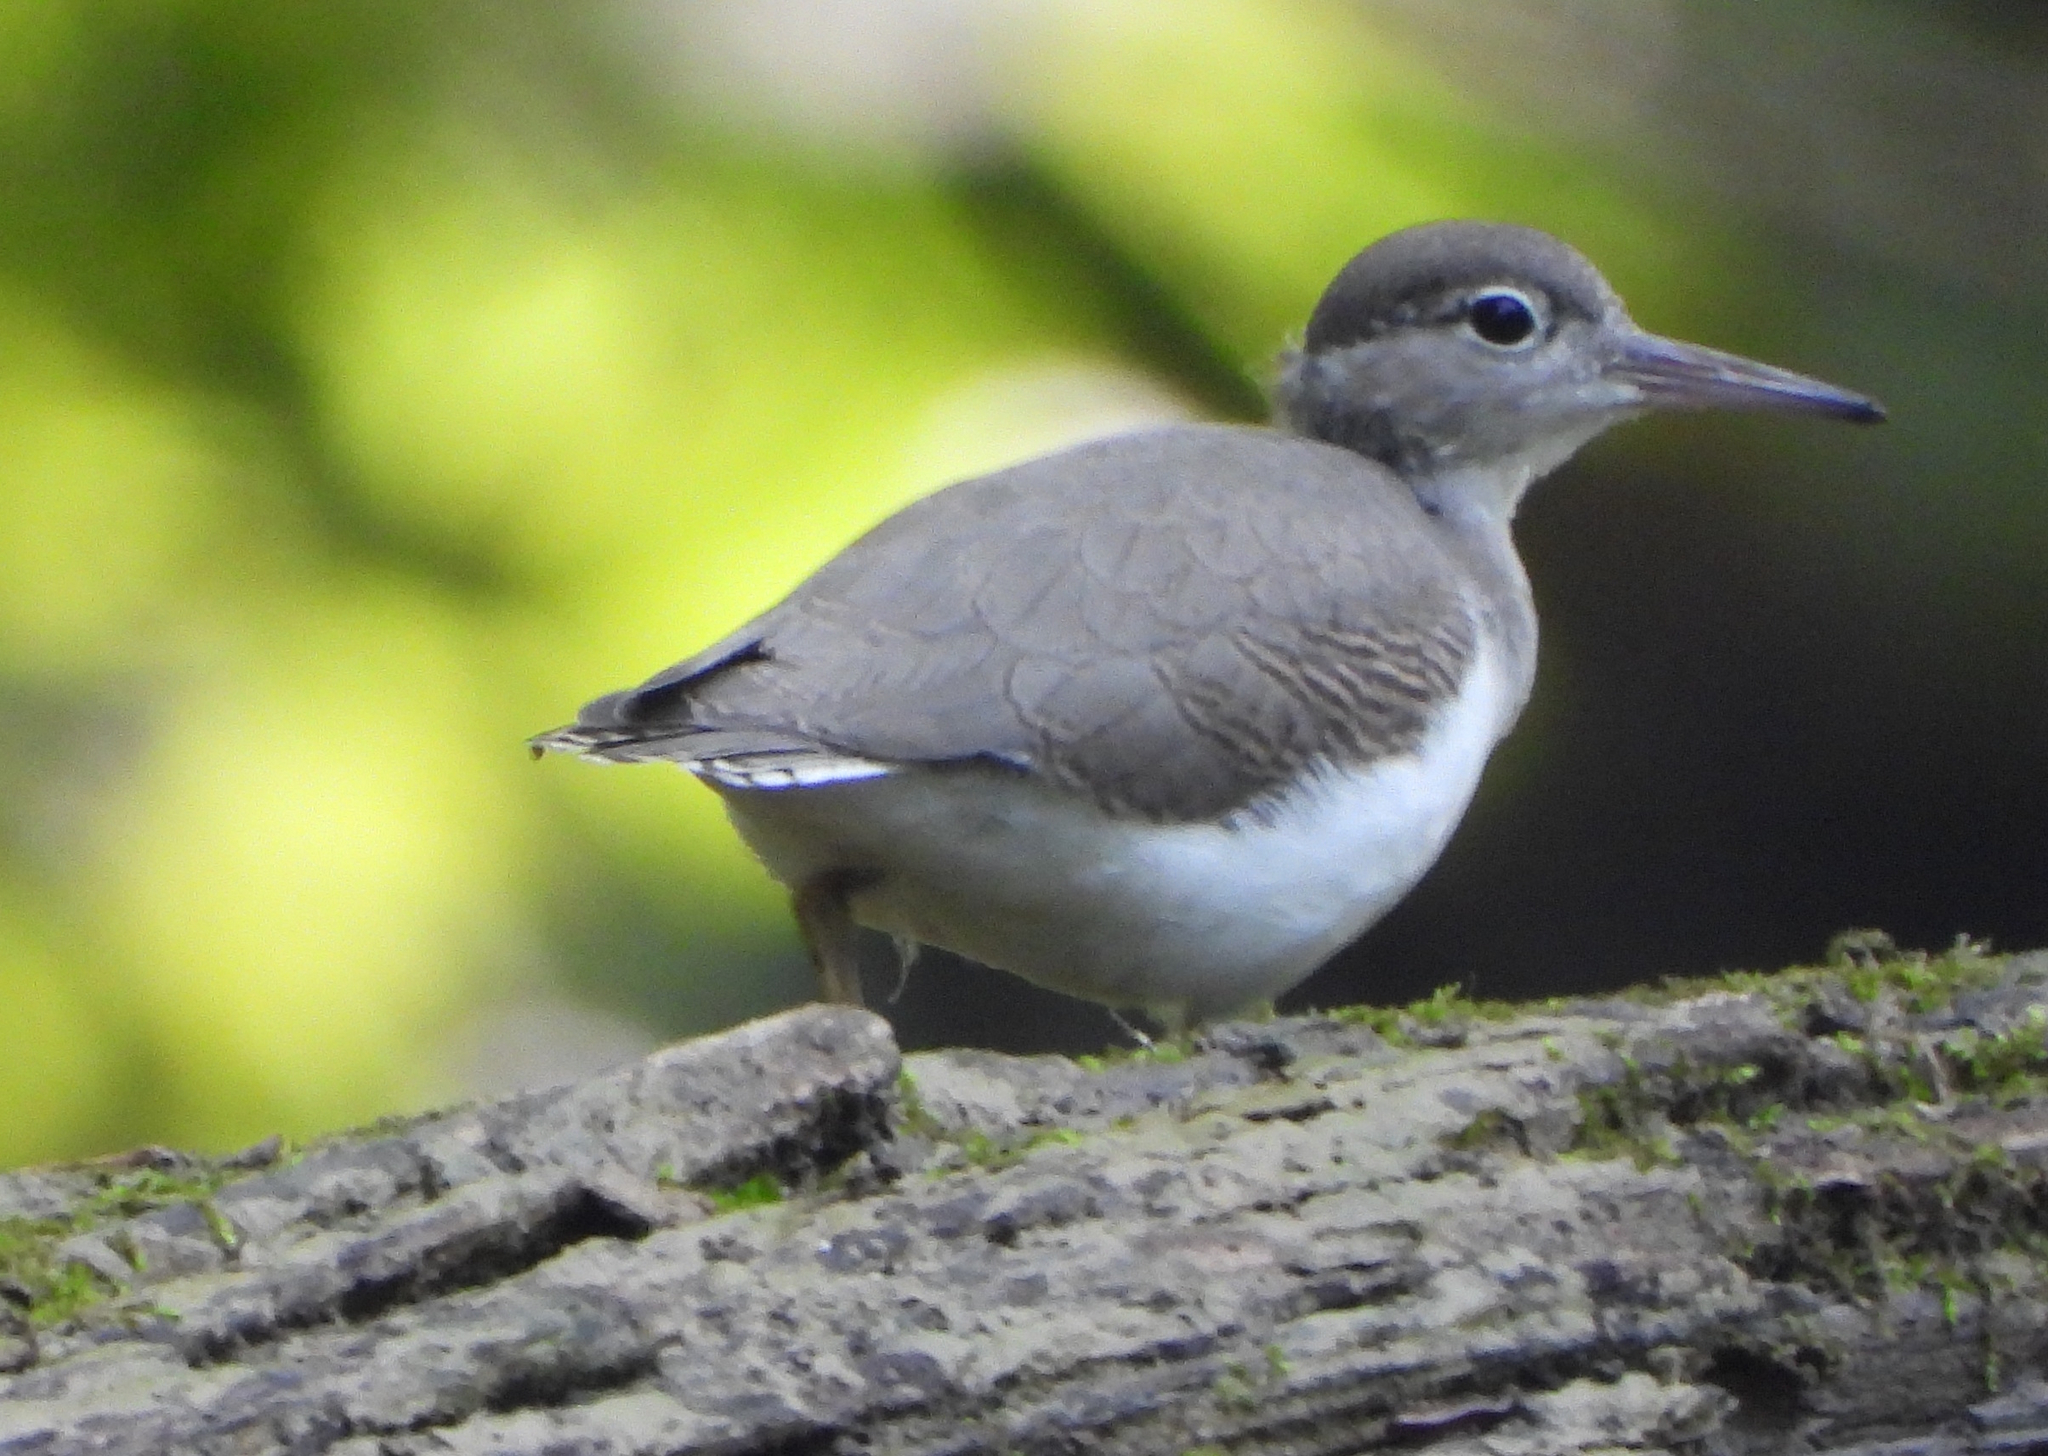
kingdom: Animalia
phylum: Chordata
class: Aves
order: Charadriiformes
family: Scolopacidae
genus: Actitis
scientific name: Actitis macularius
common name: Spotted sandpiper
